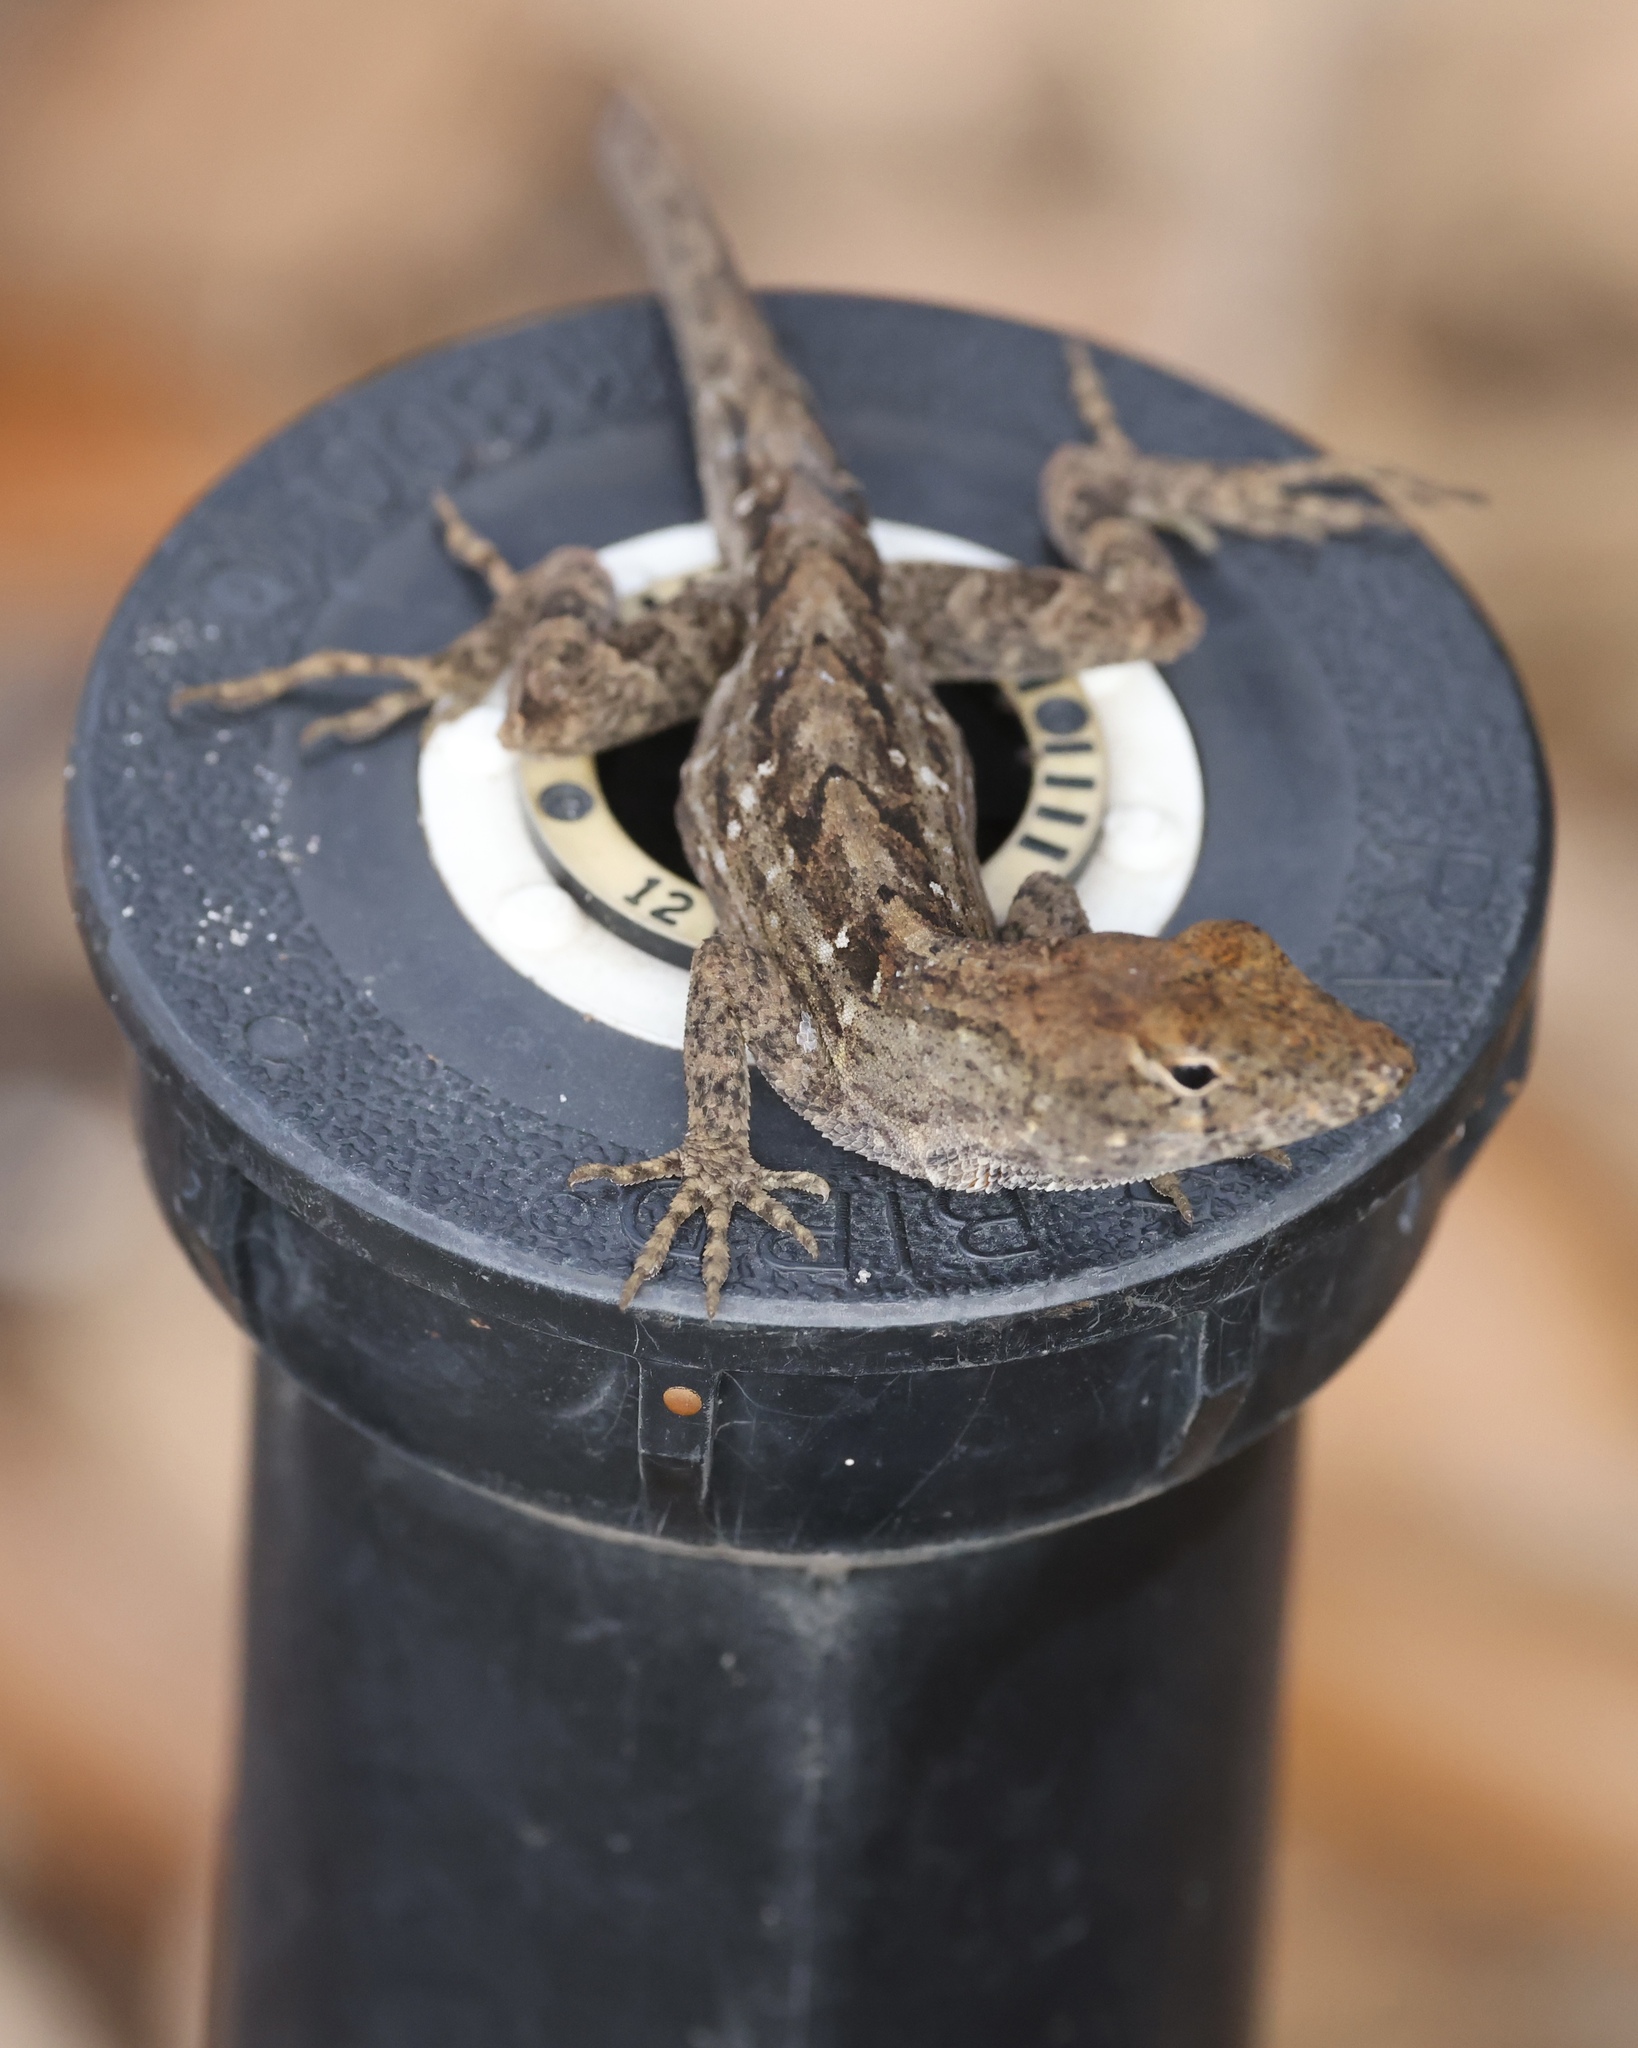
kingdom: Animalia
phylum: Chordata
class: Squamata
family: Dactyloidae
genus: Anolis
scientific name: Anolis sagrei
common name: Brown anole
